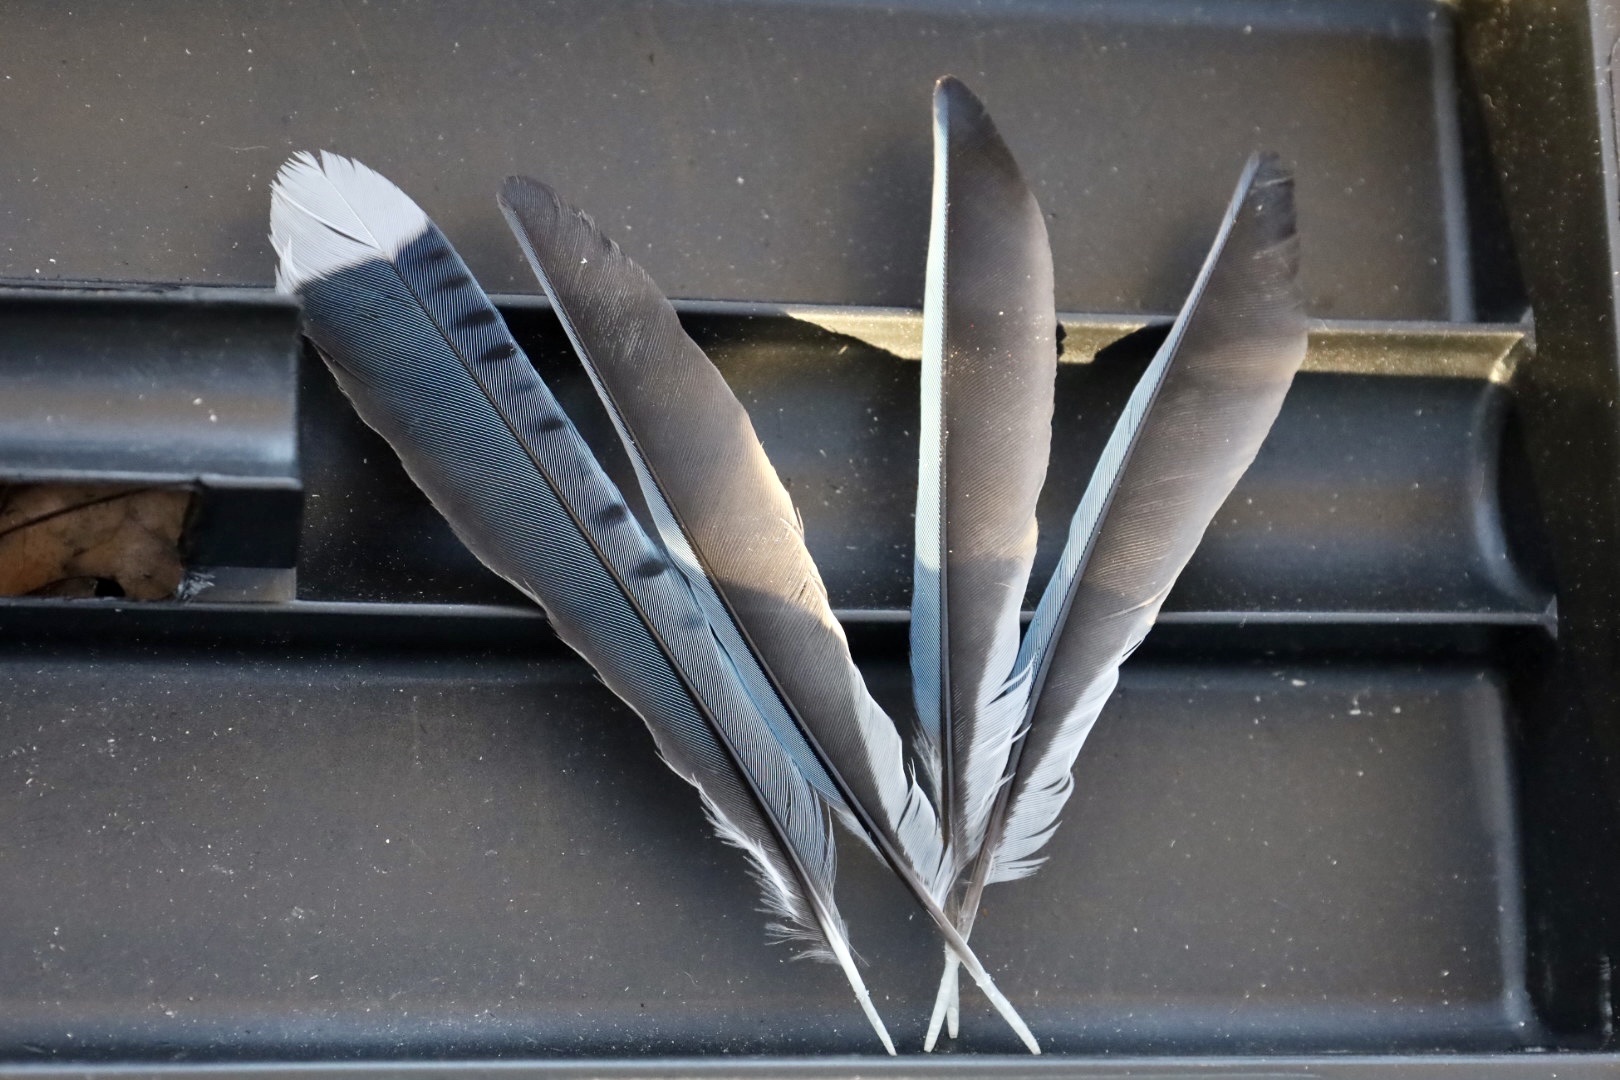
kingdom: Animalia
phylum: Chordata
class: Aves
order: Passeriformes
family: Corvidae
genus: Cyanocitta
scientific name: Cyanocitta cristata
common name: Blue jay
